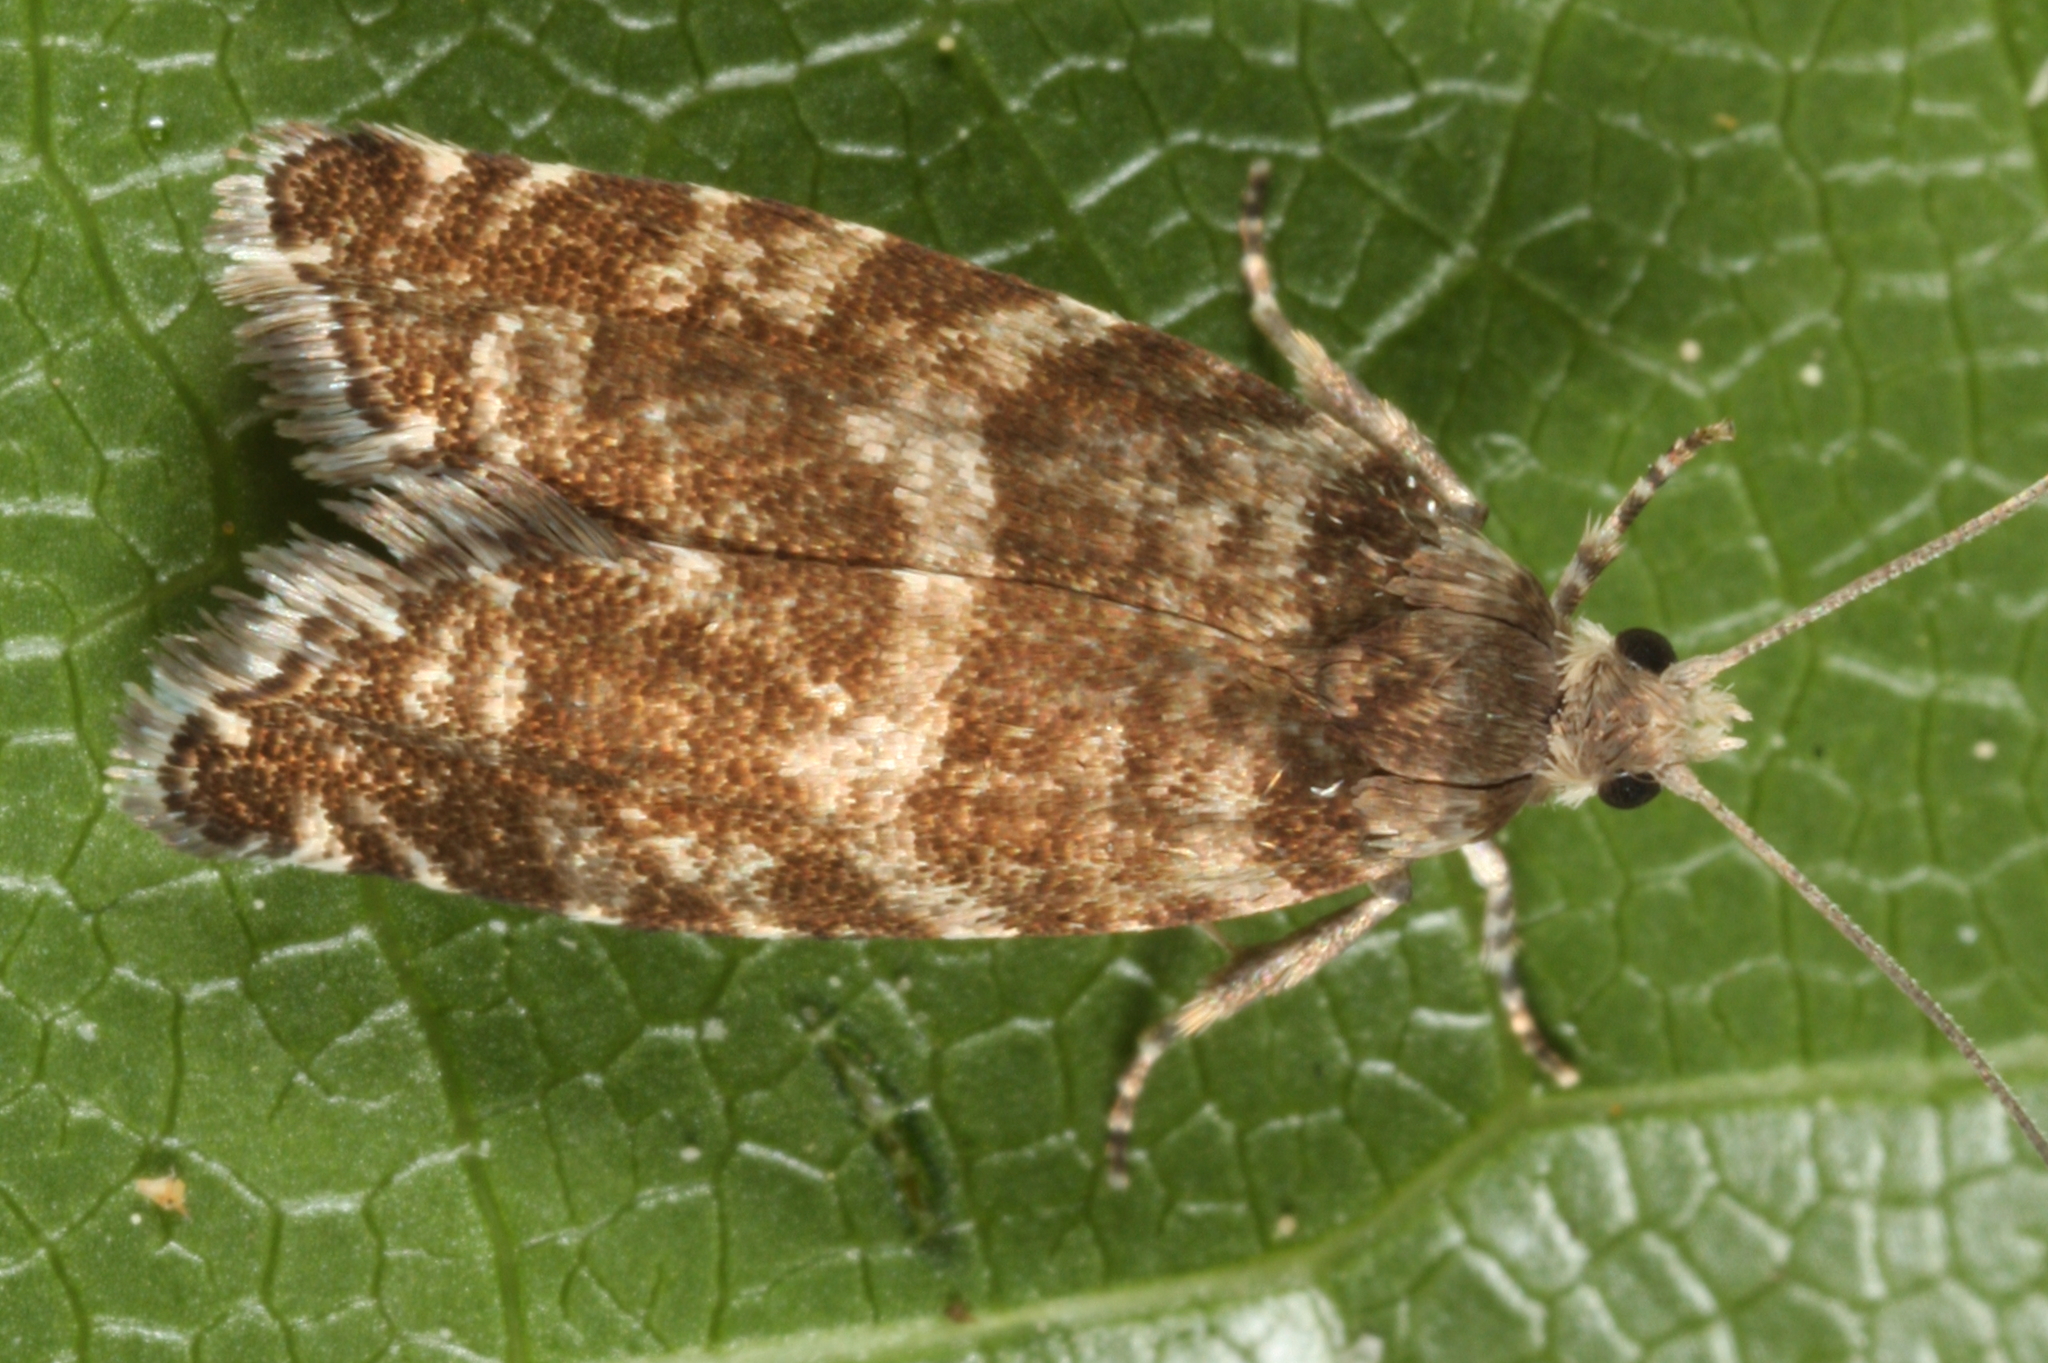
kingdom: Animalia
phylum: Arthropoda
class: Insecta
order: Lepidoptera
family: Tortricidae
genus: Epinotia
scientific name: Epinotia tedella
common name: Common spruce bell
